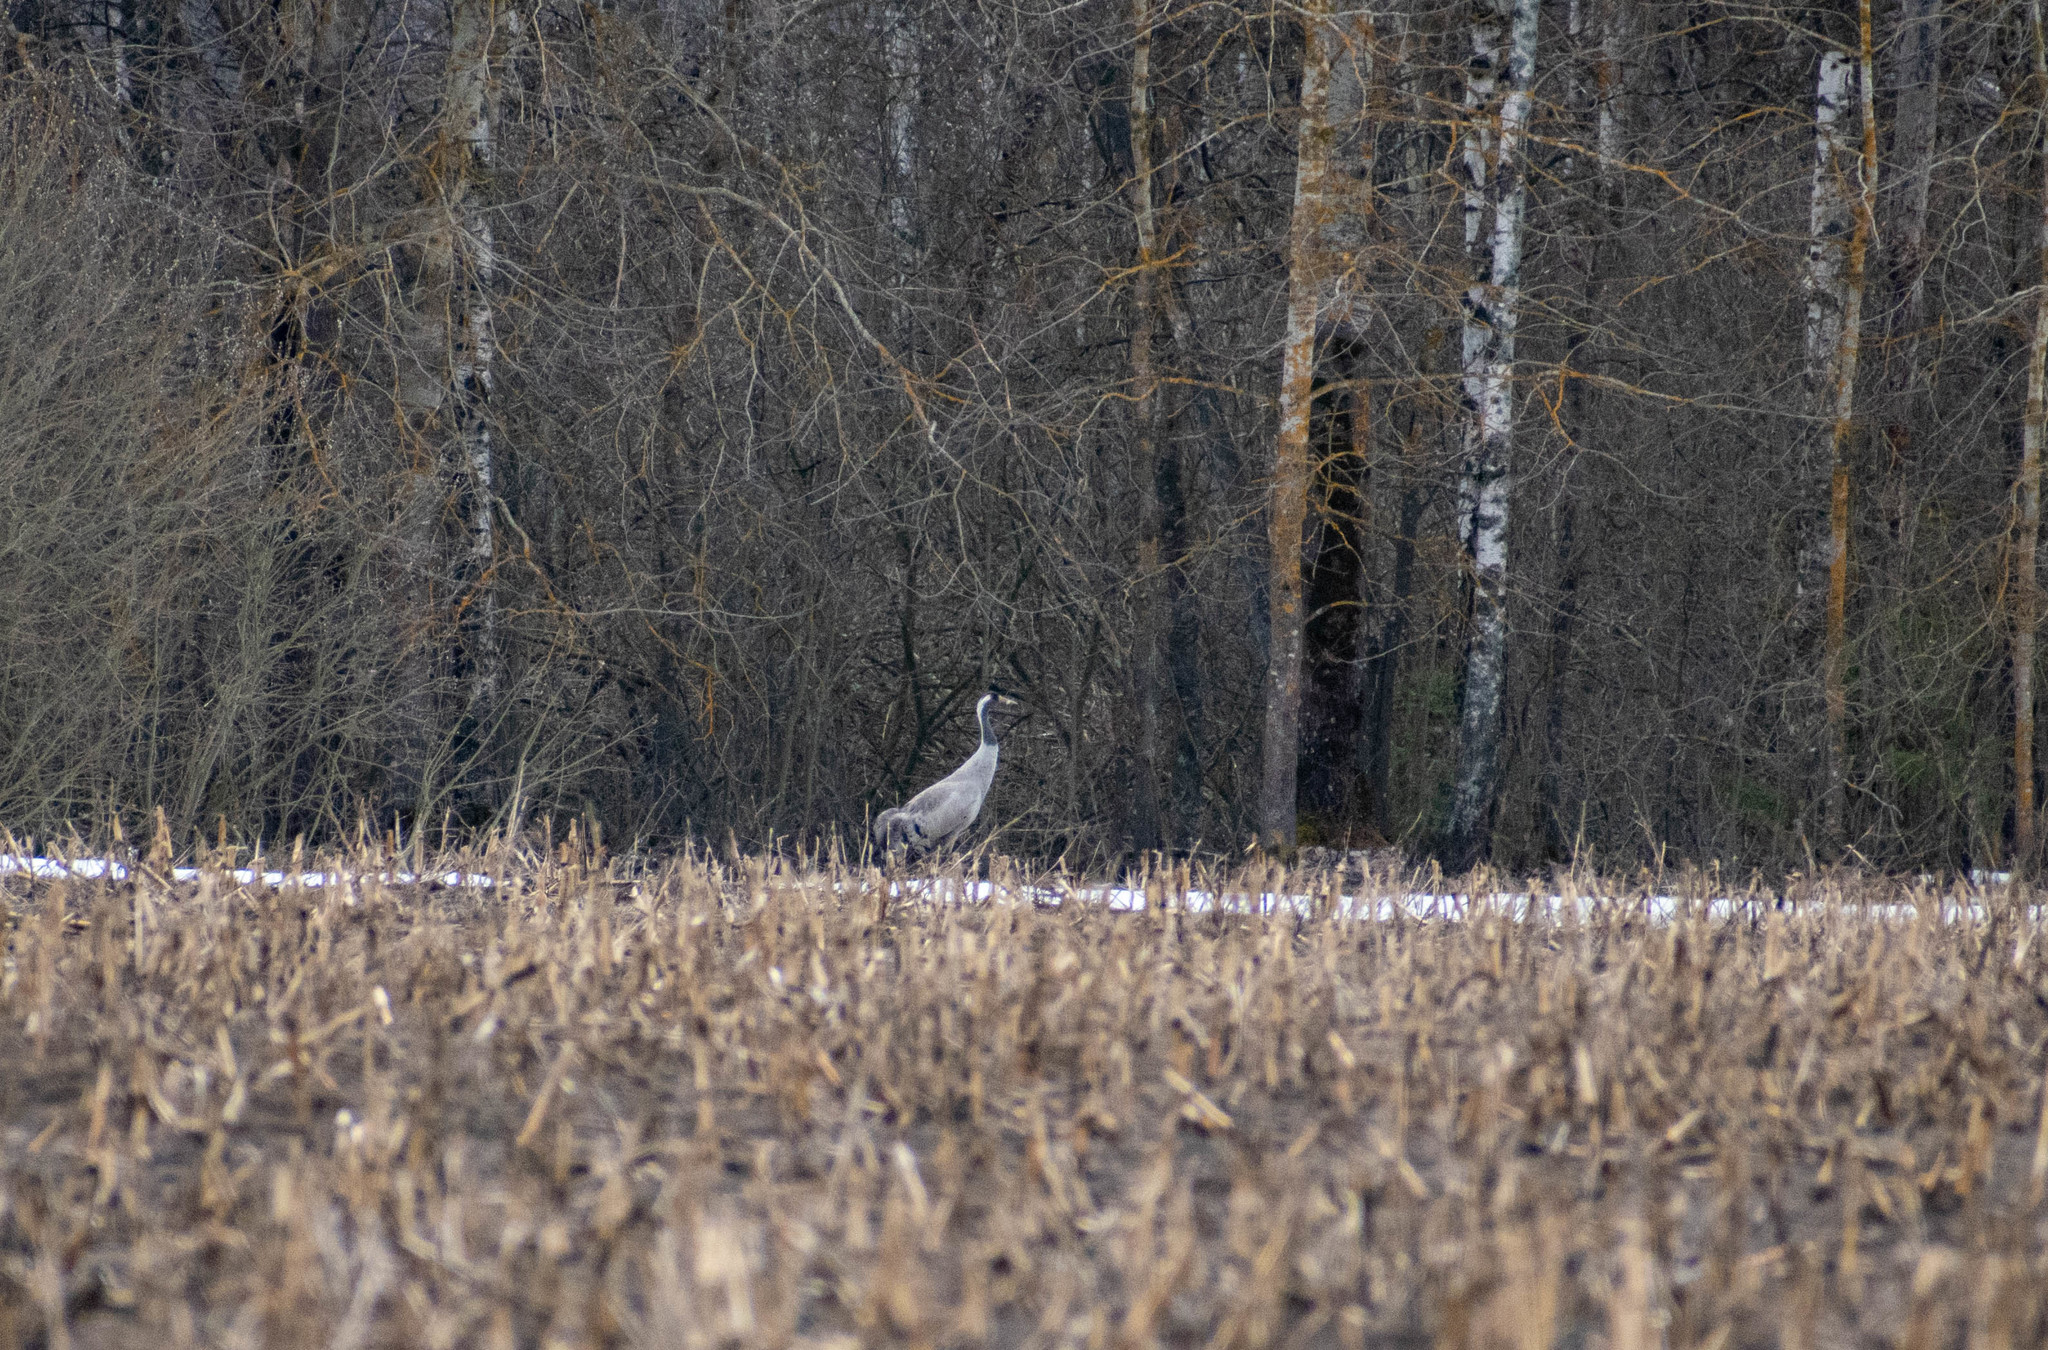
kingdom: Animalia
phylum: Chordata
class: Aves
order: Gruiformes
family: Gruidae
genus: Grus
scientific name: Grus grus
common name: Common crane
